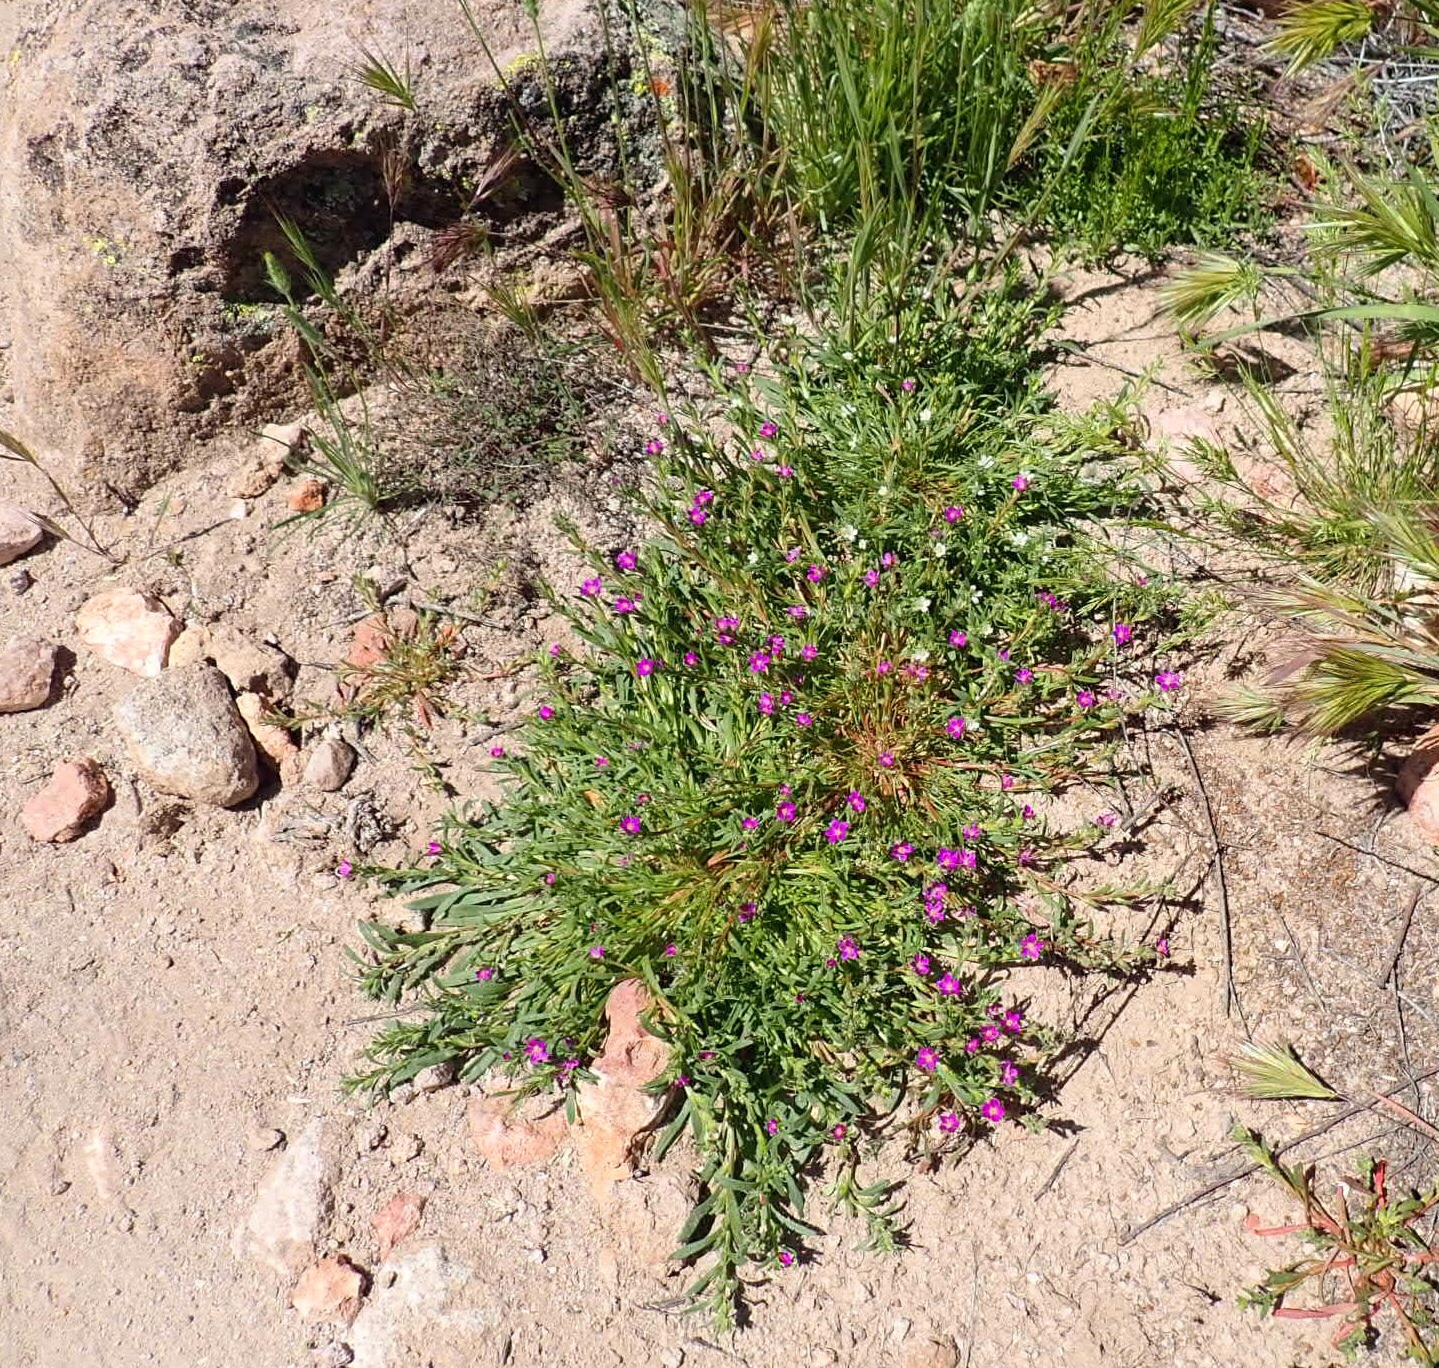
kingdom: Plantae
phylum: Tracheophyta
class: Magnoliopsida
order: Caryophyllales
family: Montiaceae
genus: Calandrinia
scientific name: Calandrinia menziesii
